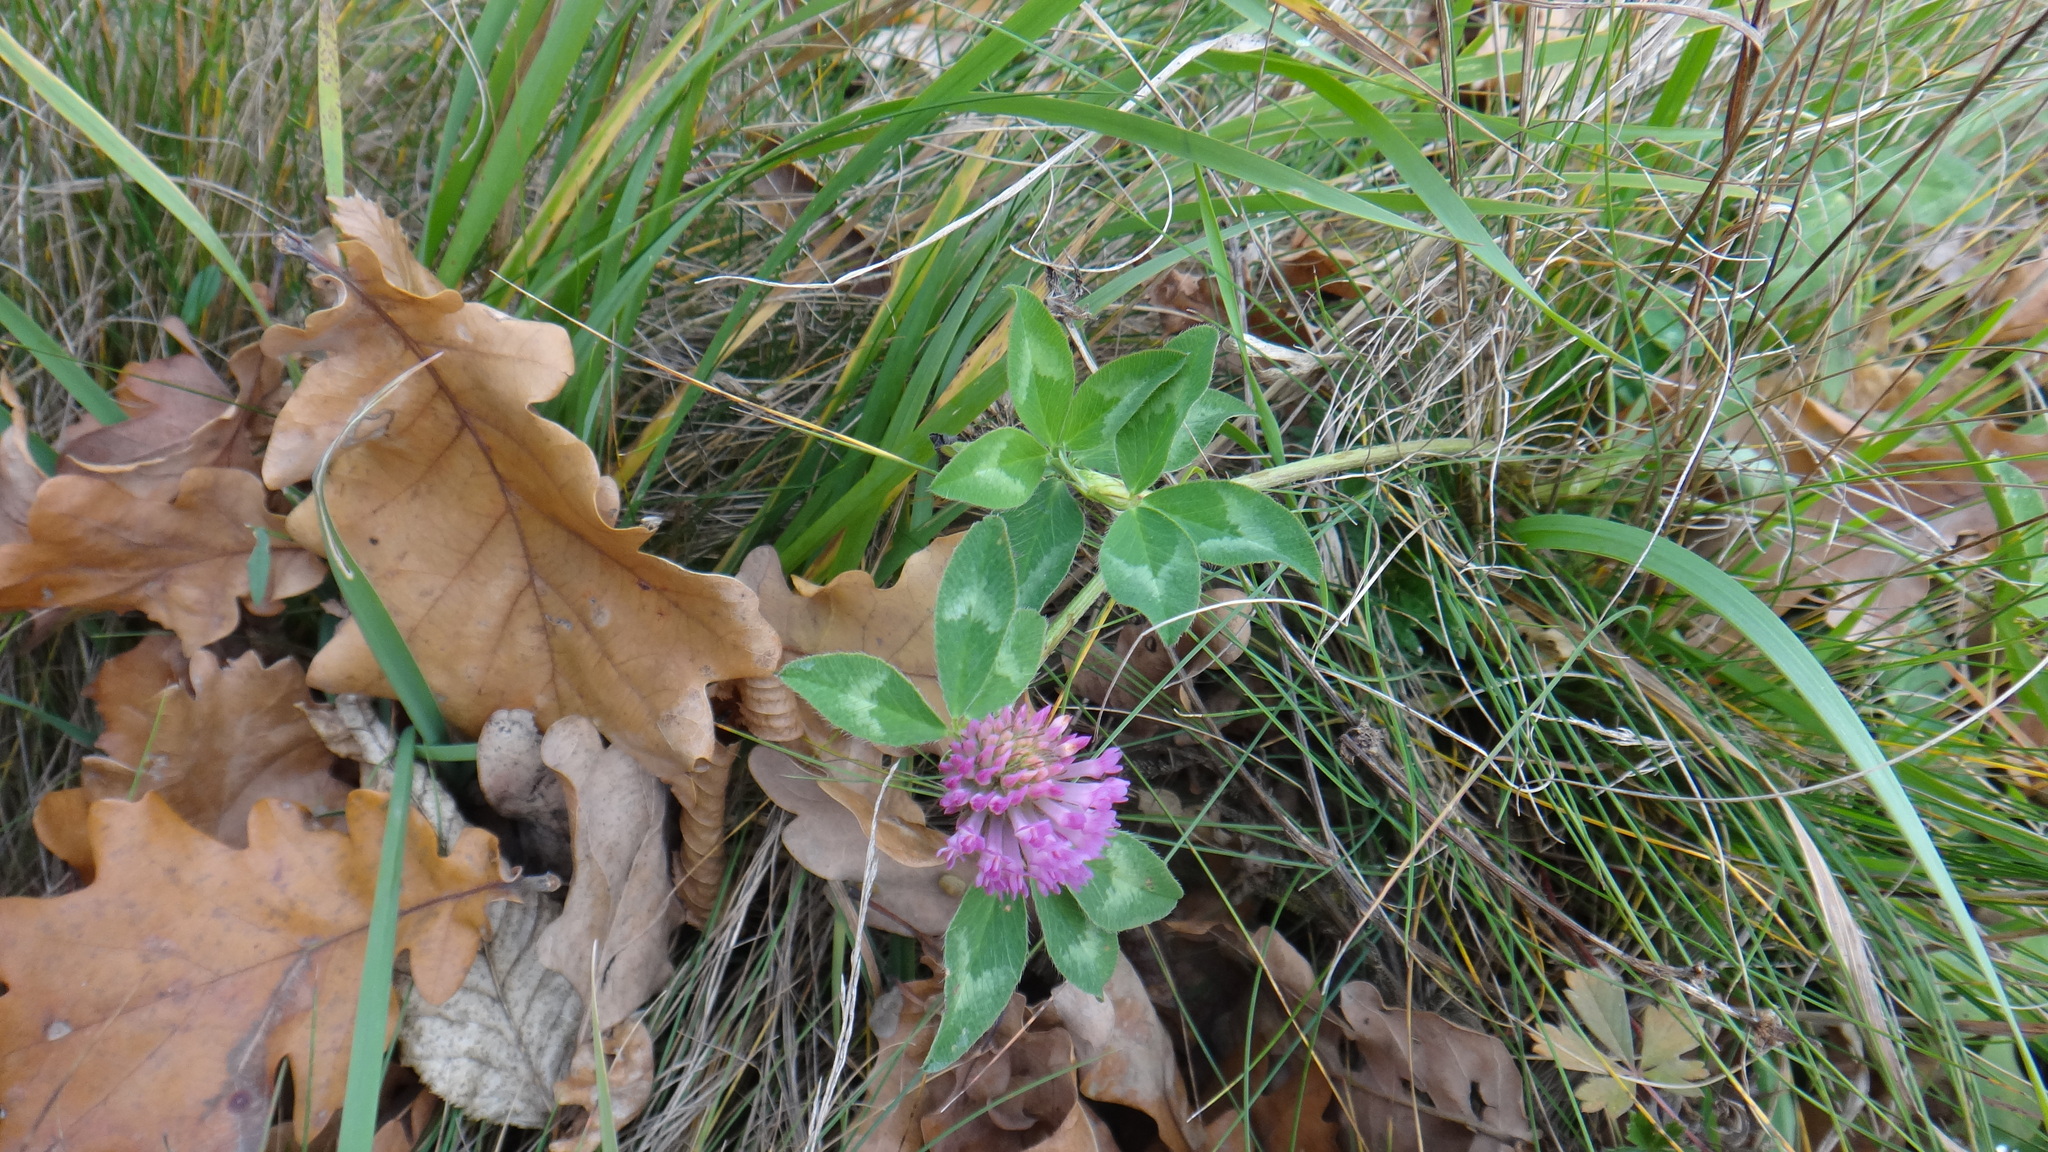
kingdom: Plantae
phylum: Tracheophyta
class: Magnoliopsida
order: Fabales
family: Fabaceae
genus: Trifolium
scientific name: Trifolium pratense
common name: Red clover
